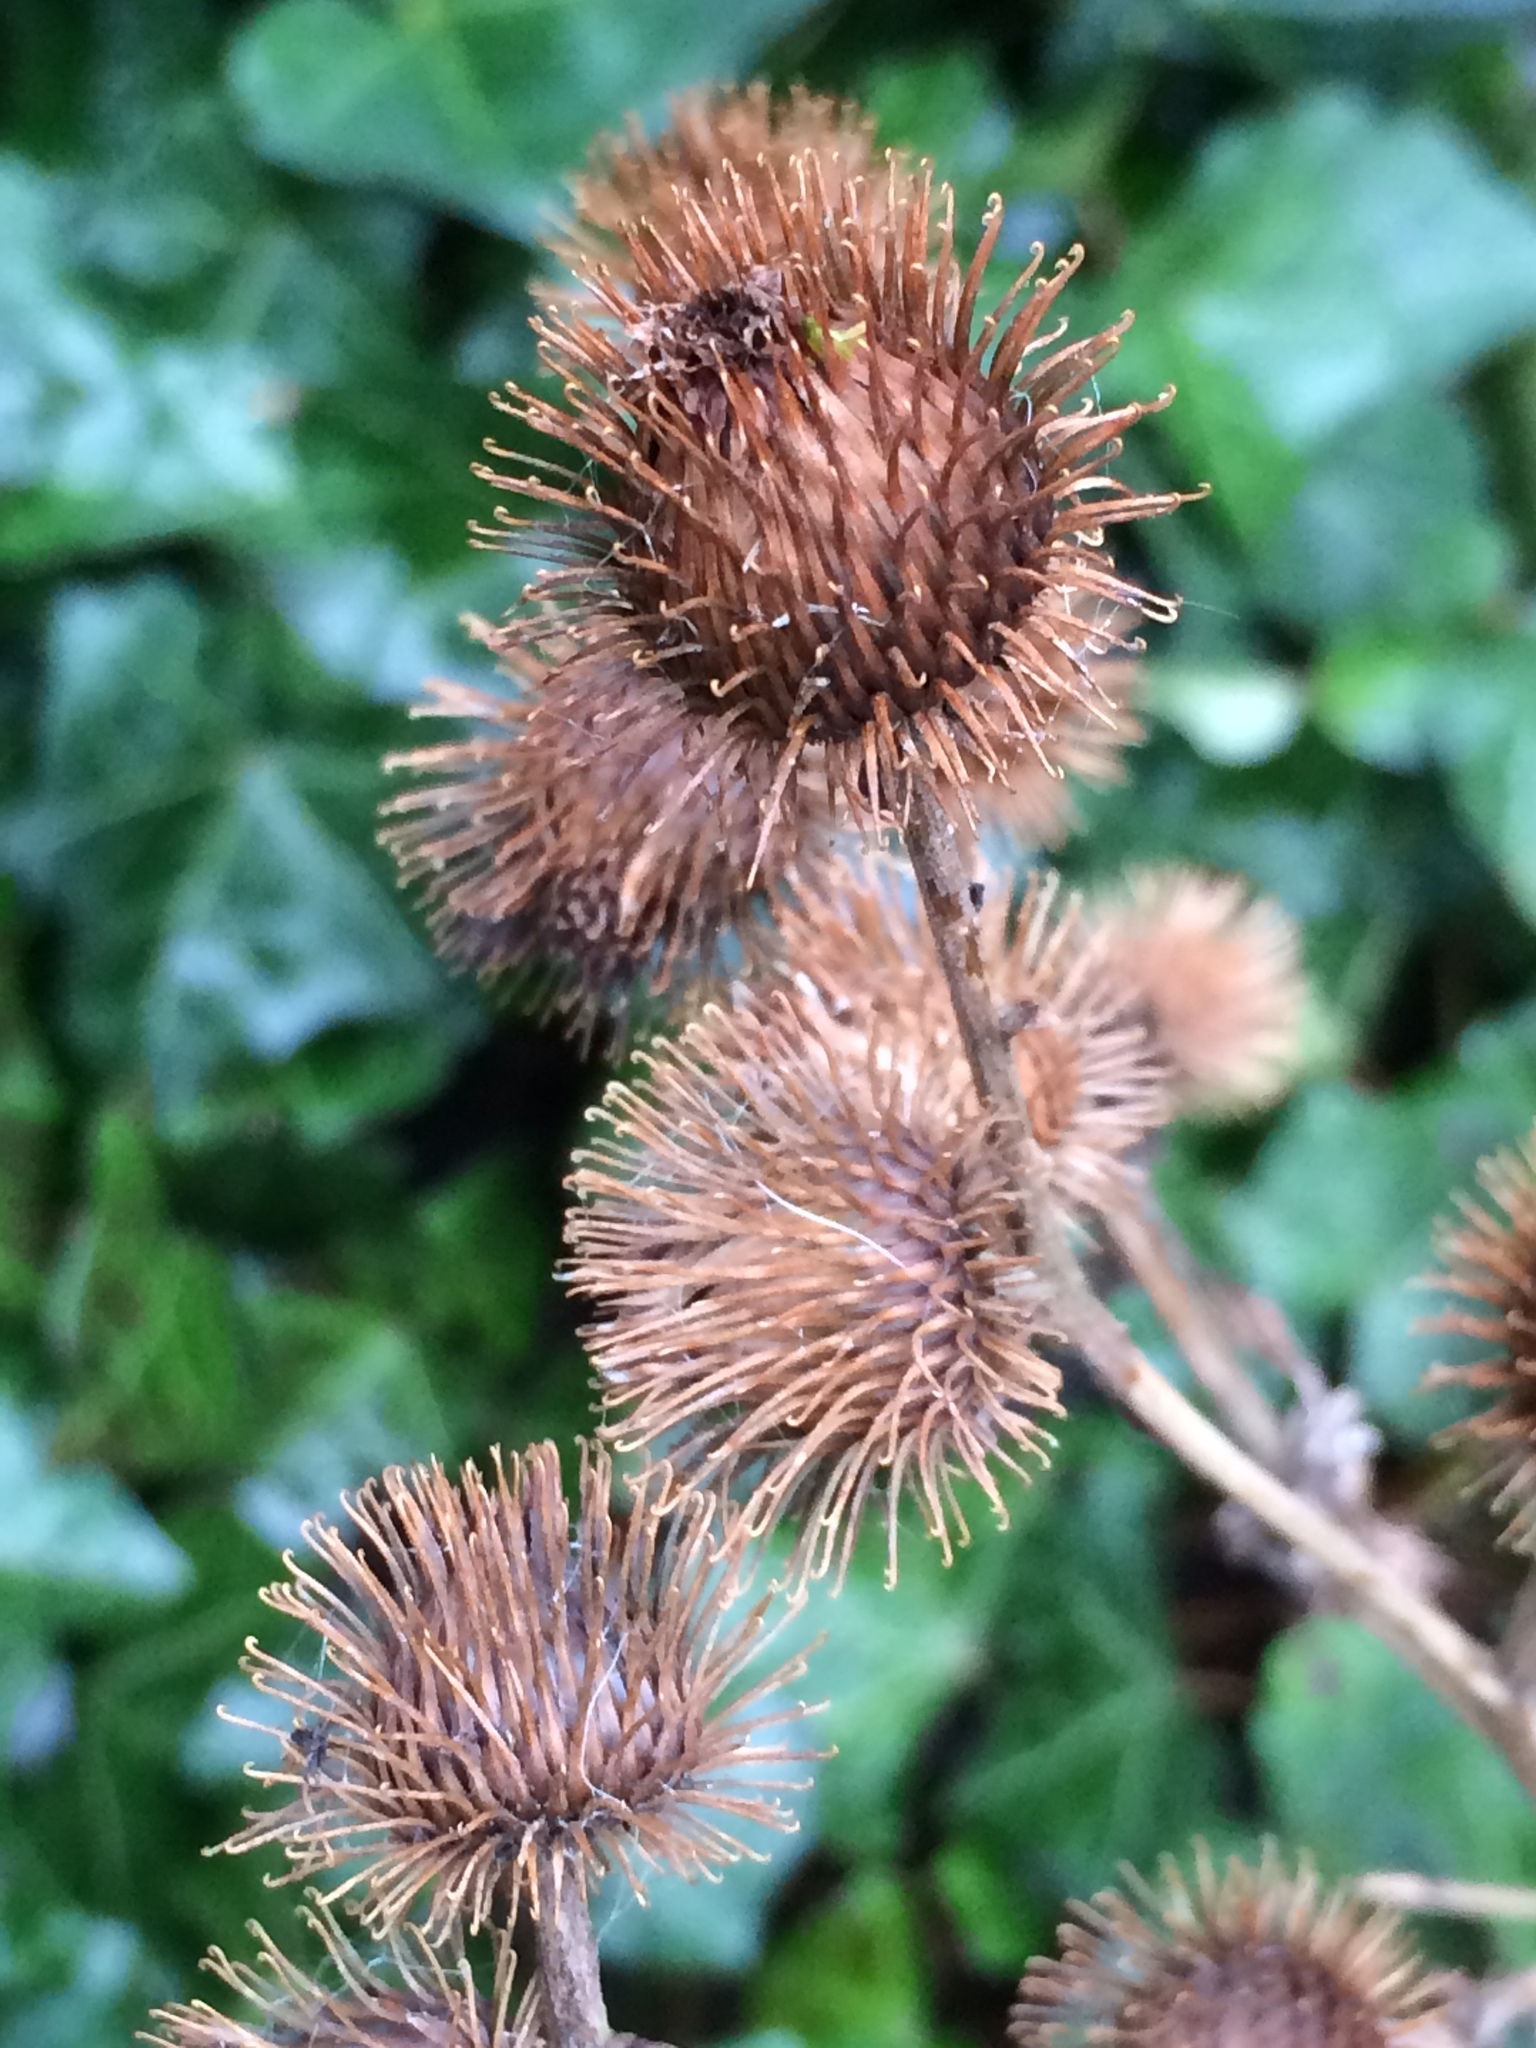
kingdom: Plantae
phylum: Tracheophyta
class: Magnoliopsida
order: Asterales
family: Asteraceae
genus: Arctium
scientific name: Arctium minus
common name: Lesser burdock
